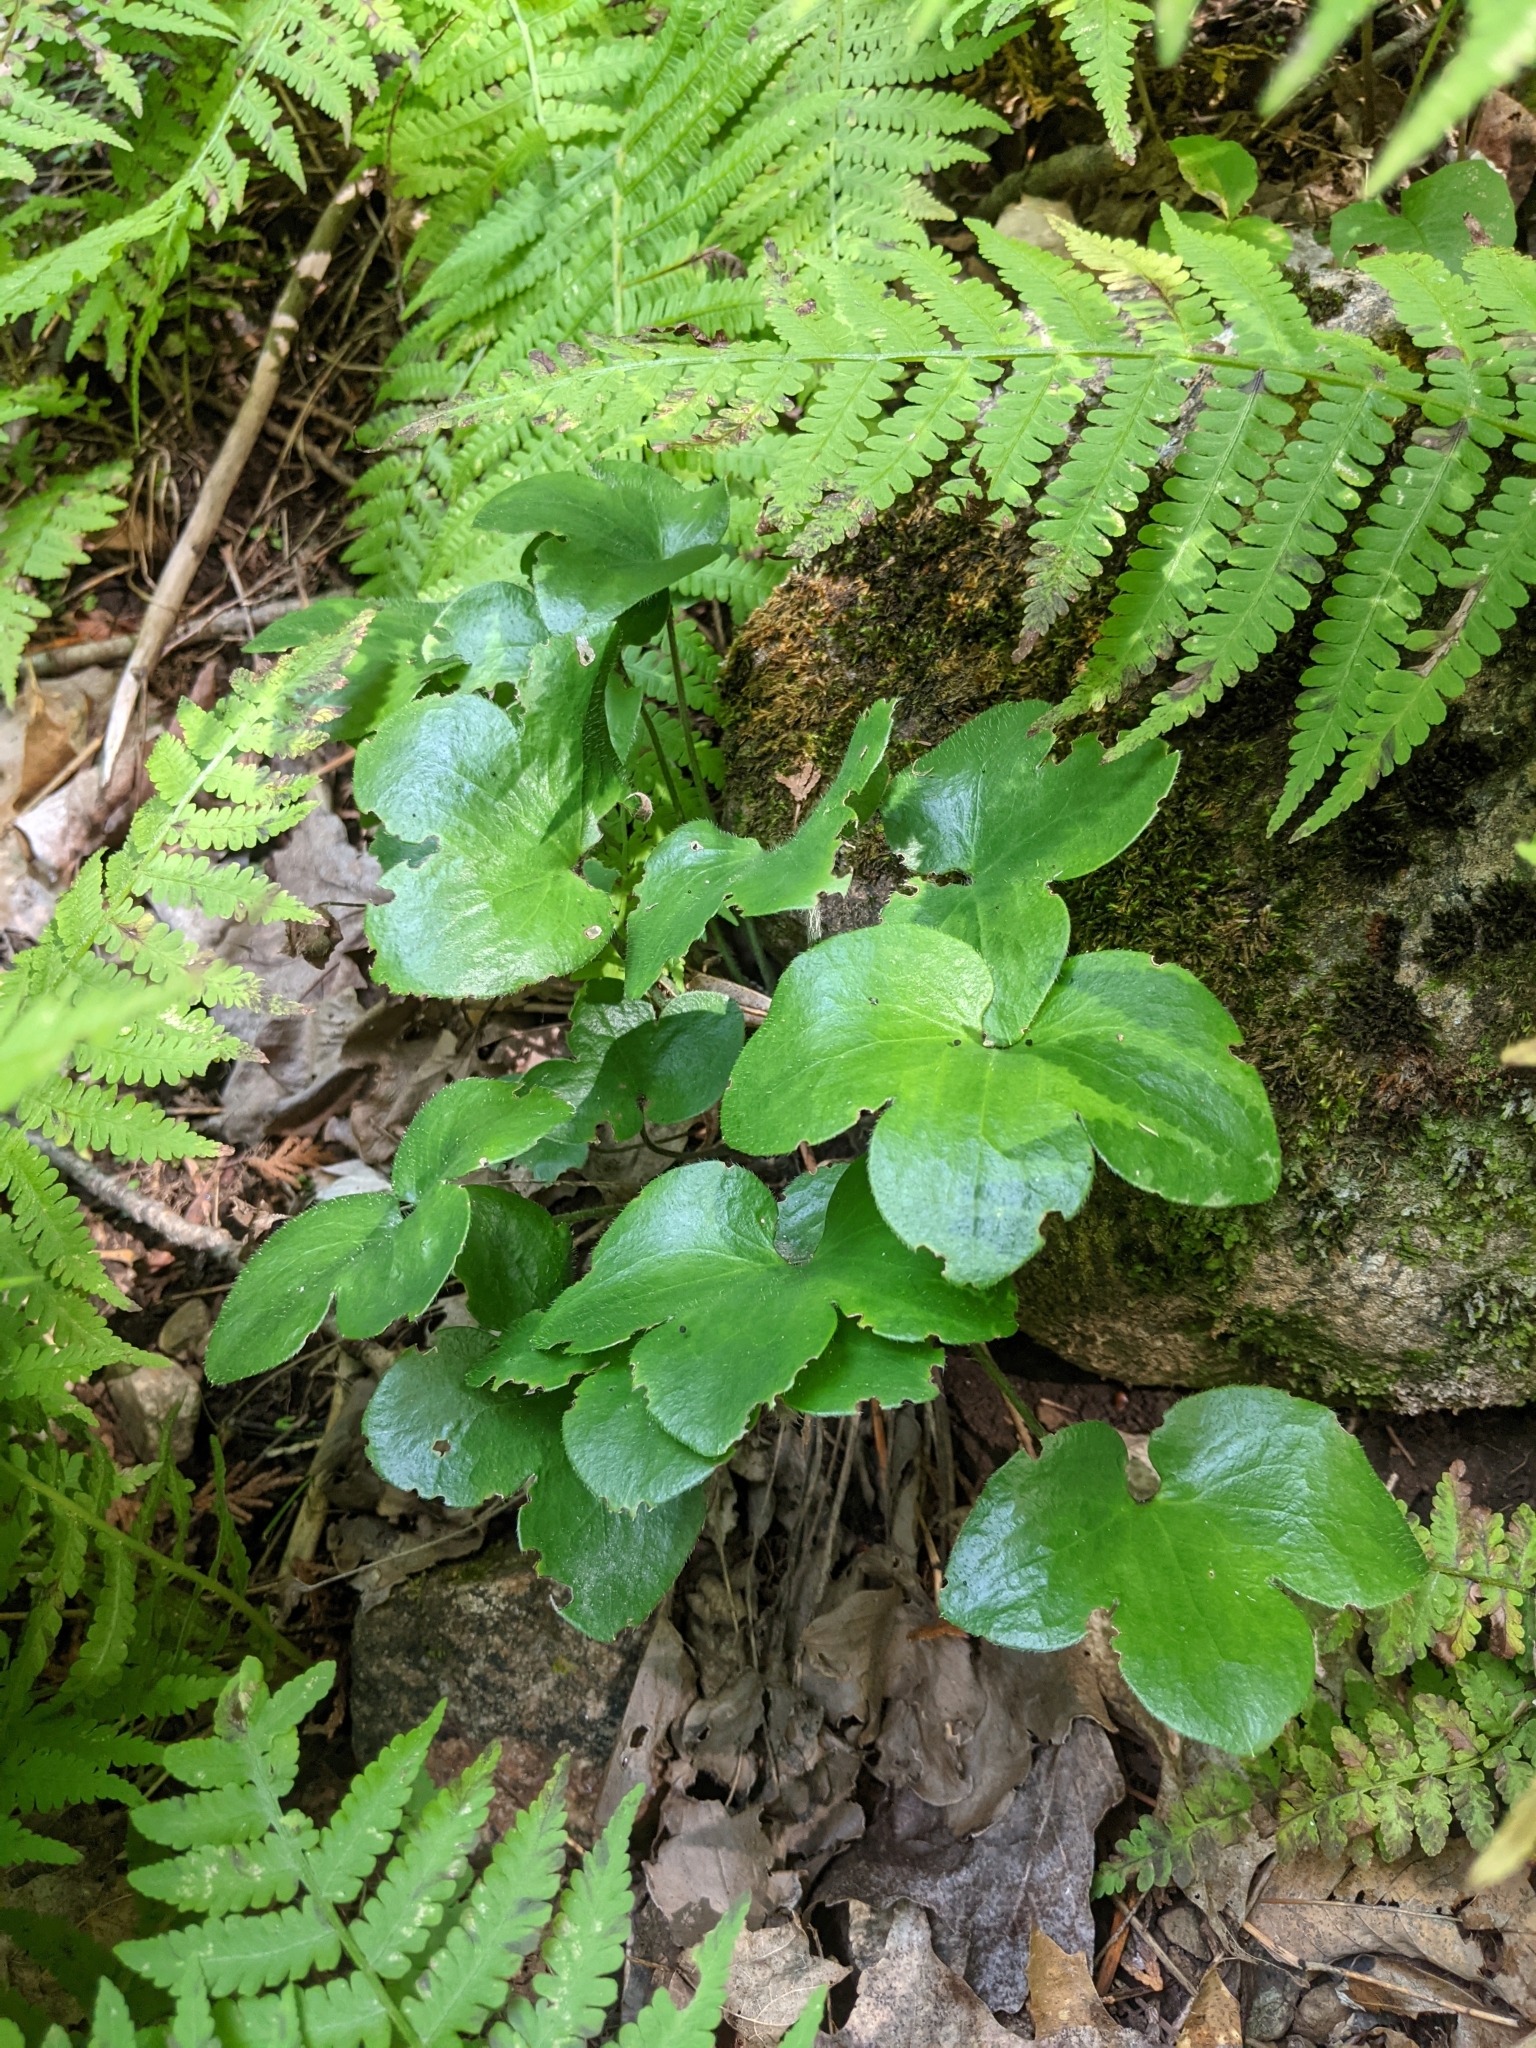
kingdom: Plantae
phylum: Tracheophyta
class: Magnoliopsida
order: Ranunculales
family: Ranunculaceae
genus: Hepatica
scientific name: Hepatica americana
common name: American hepatica
